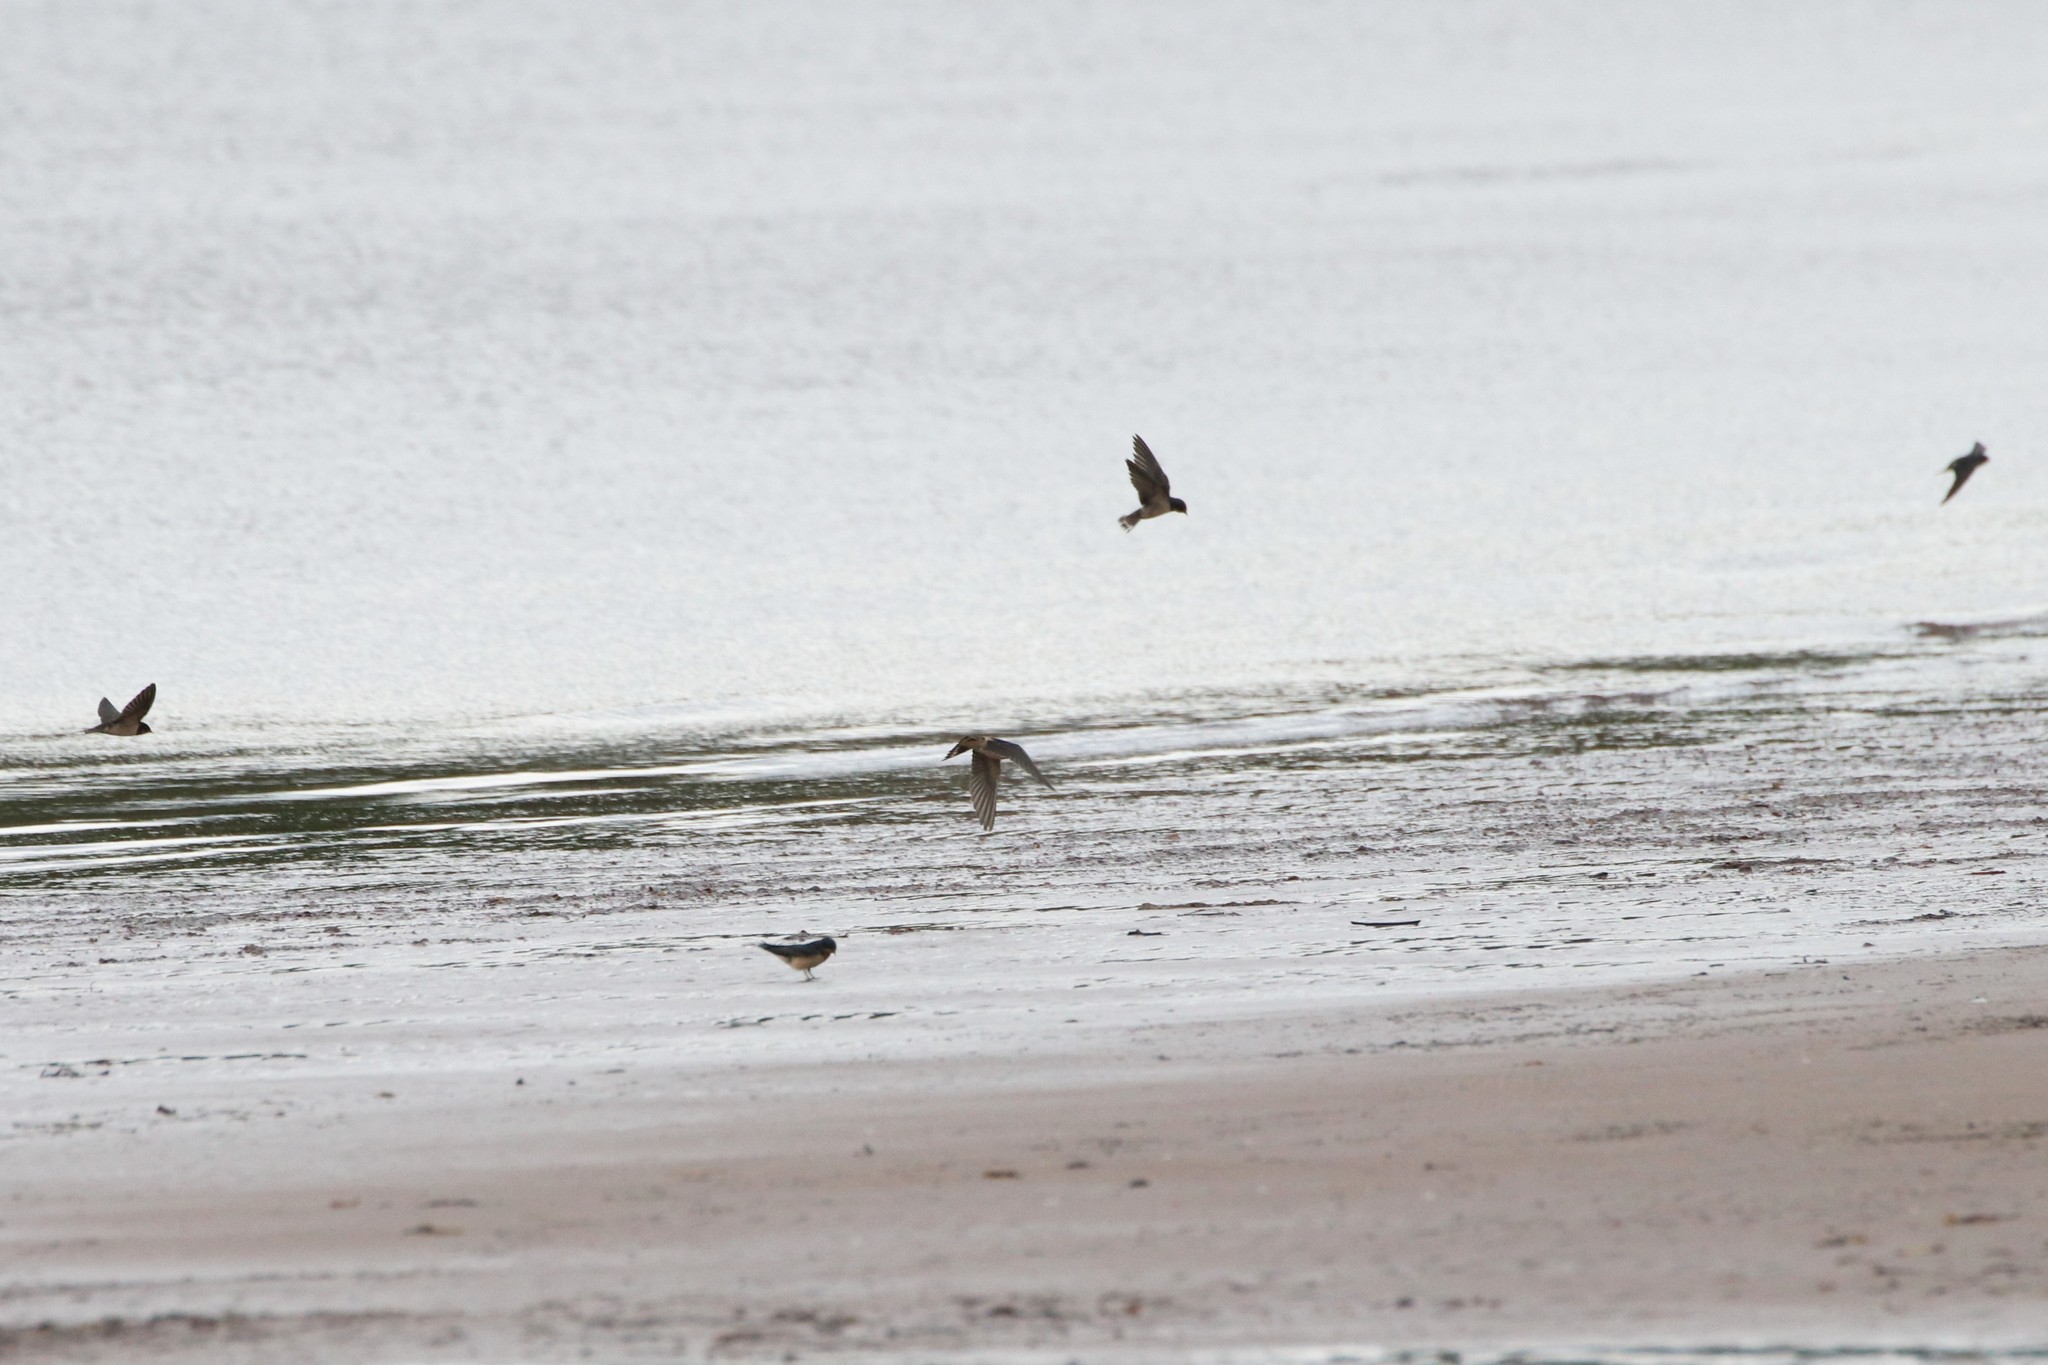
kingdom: Animalia
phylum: Chordata
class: Aves
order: Passeriformes
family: Hirundinidae
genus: Hirundo
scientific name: Hirundo rustica
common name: Barn swallow
